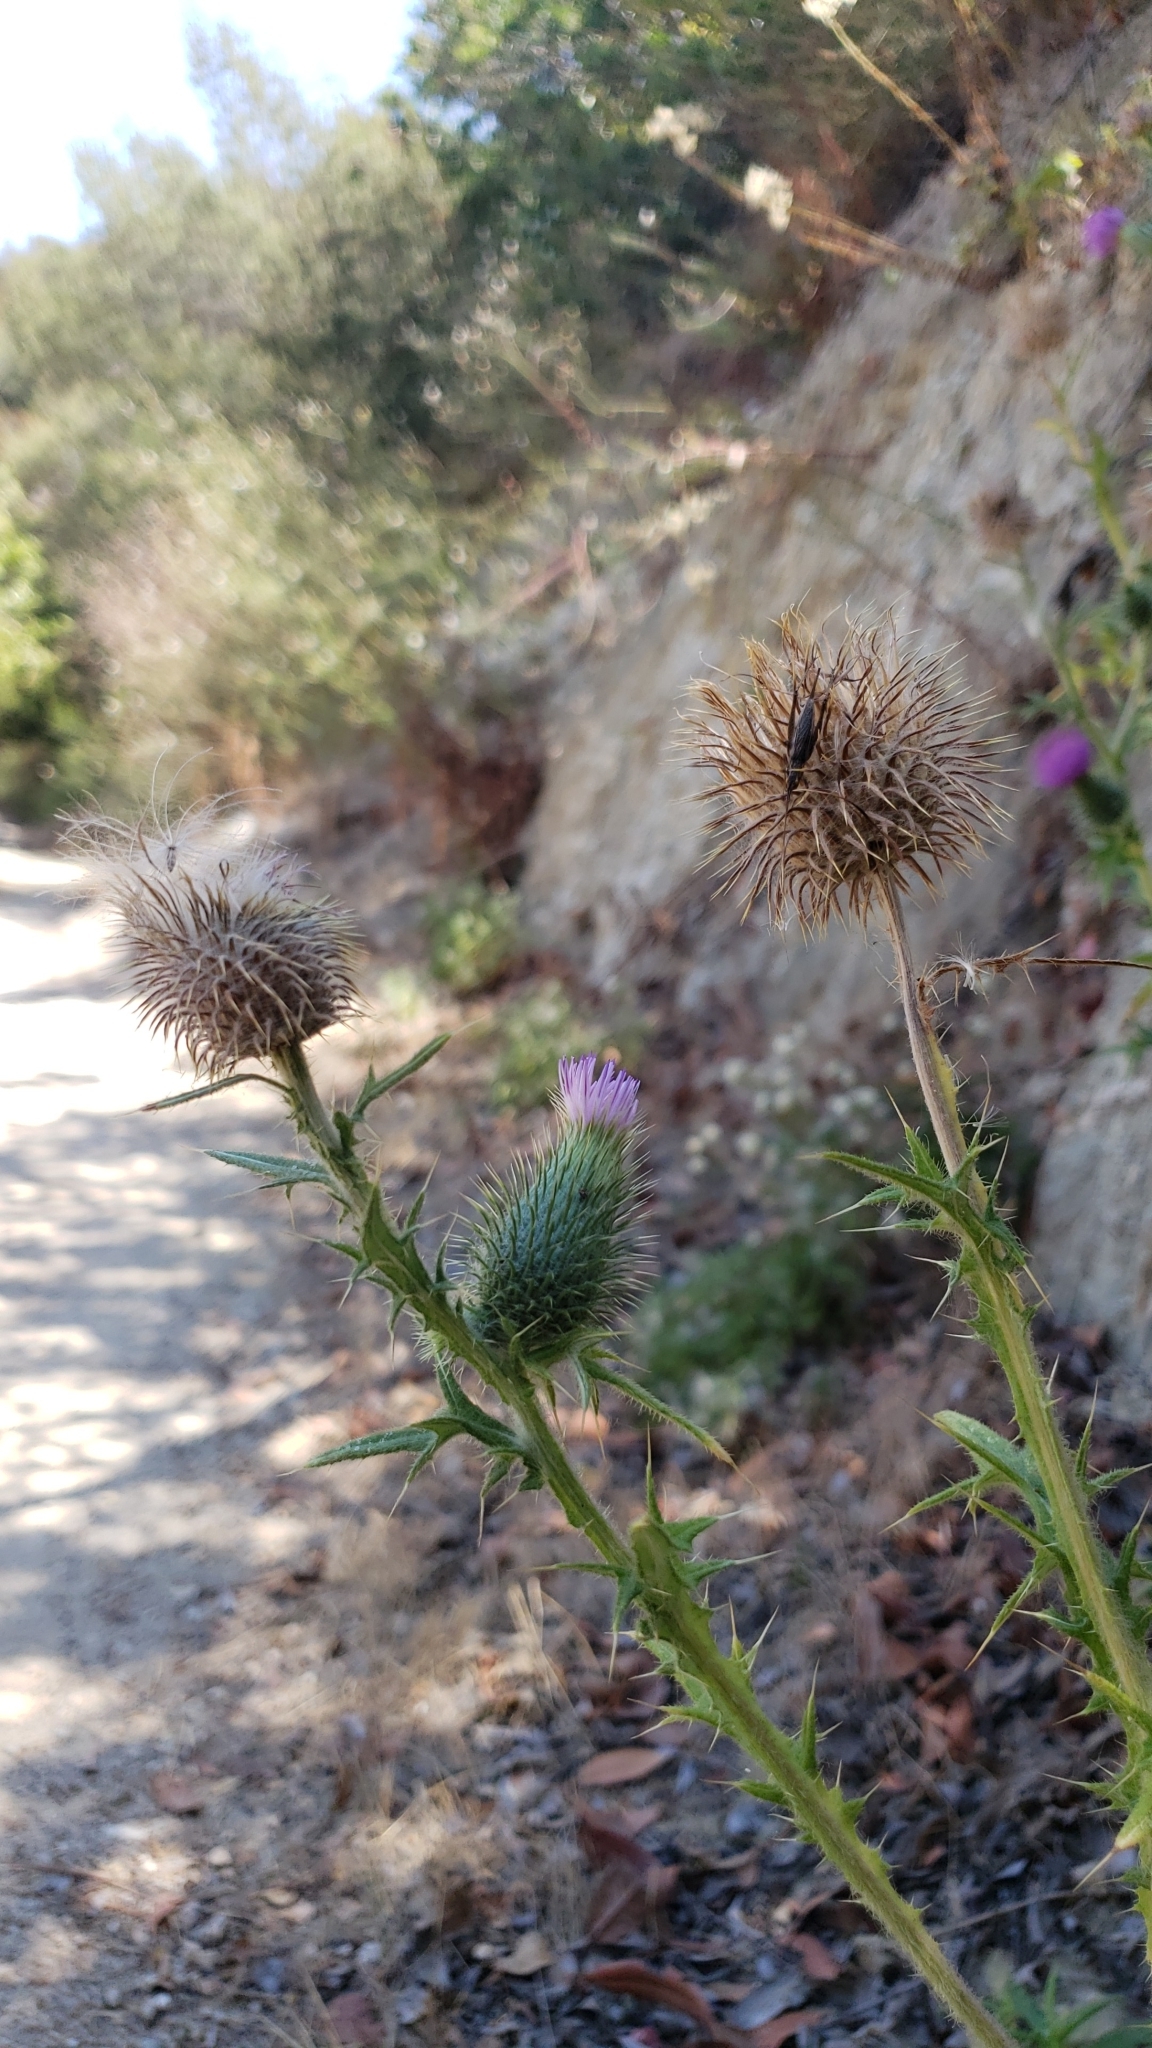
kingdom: Plantae
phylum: Tracheophyta
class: Magnoliopsida
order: Asterales
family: Asteraceae
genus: Cirsium
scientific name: Cirsium vulgare
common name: Bull thistle
